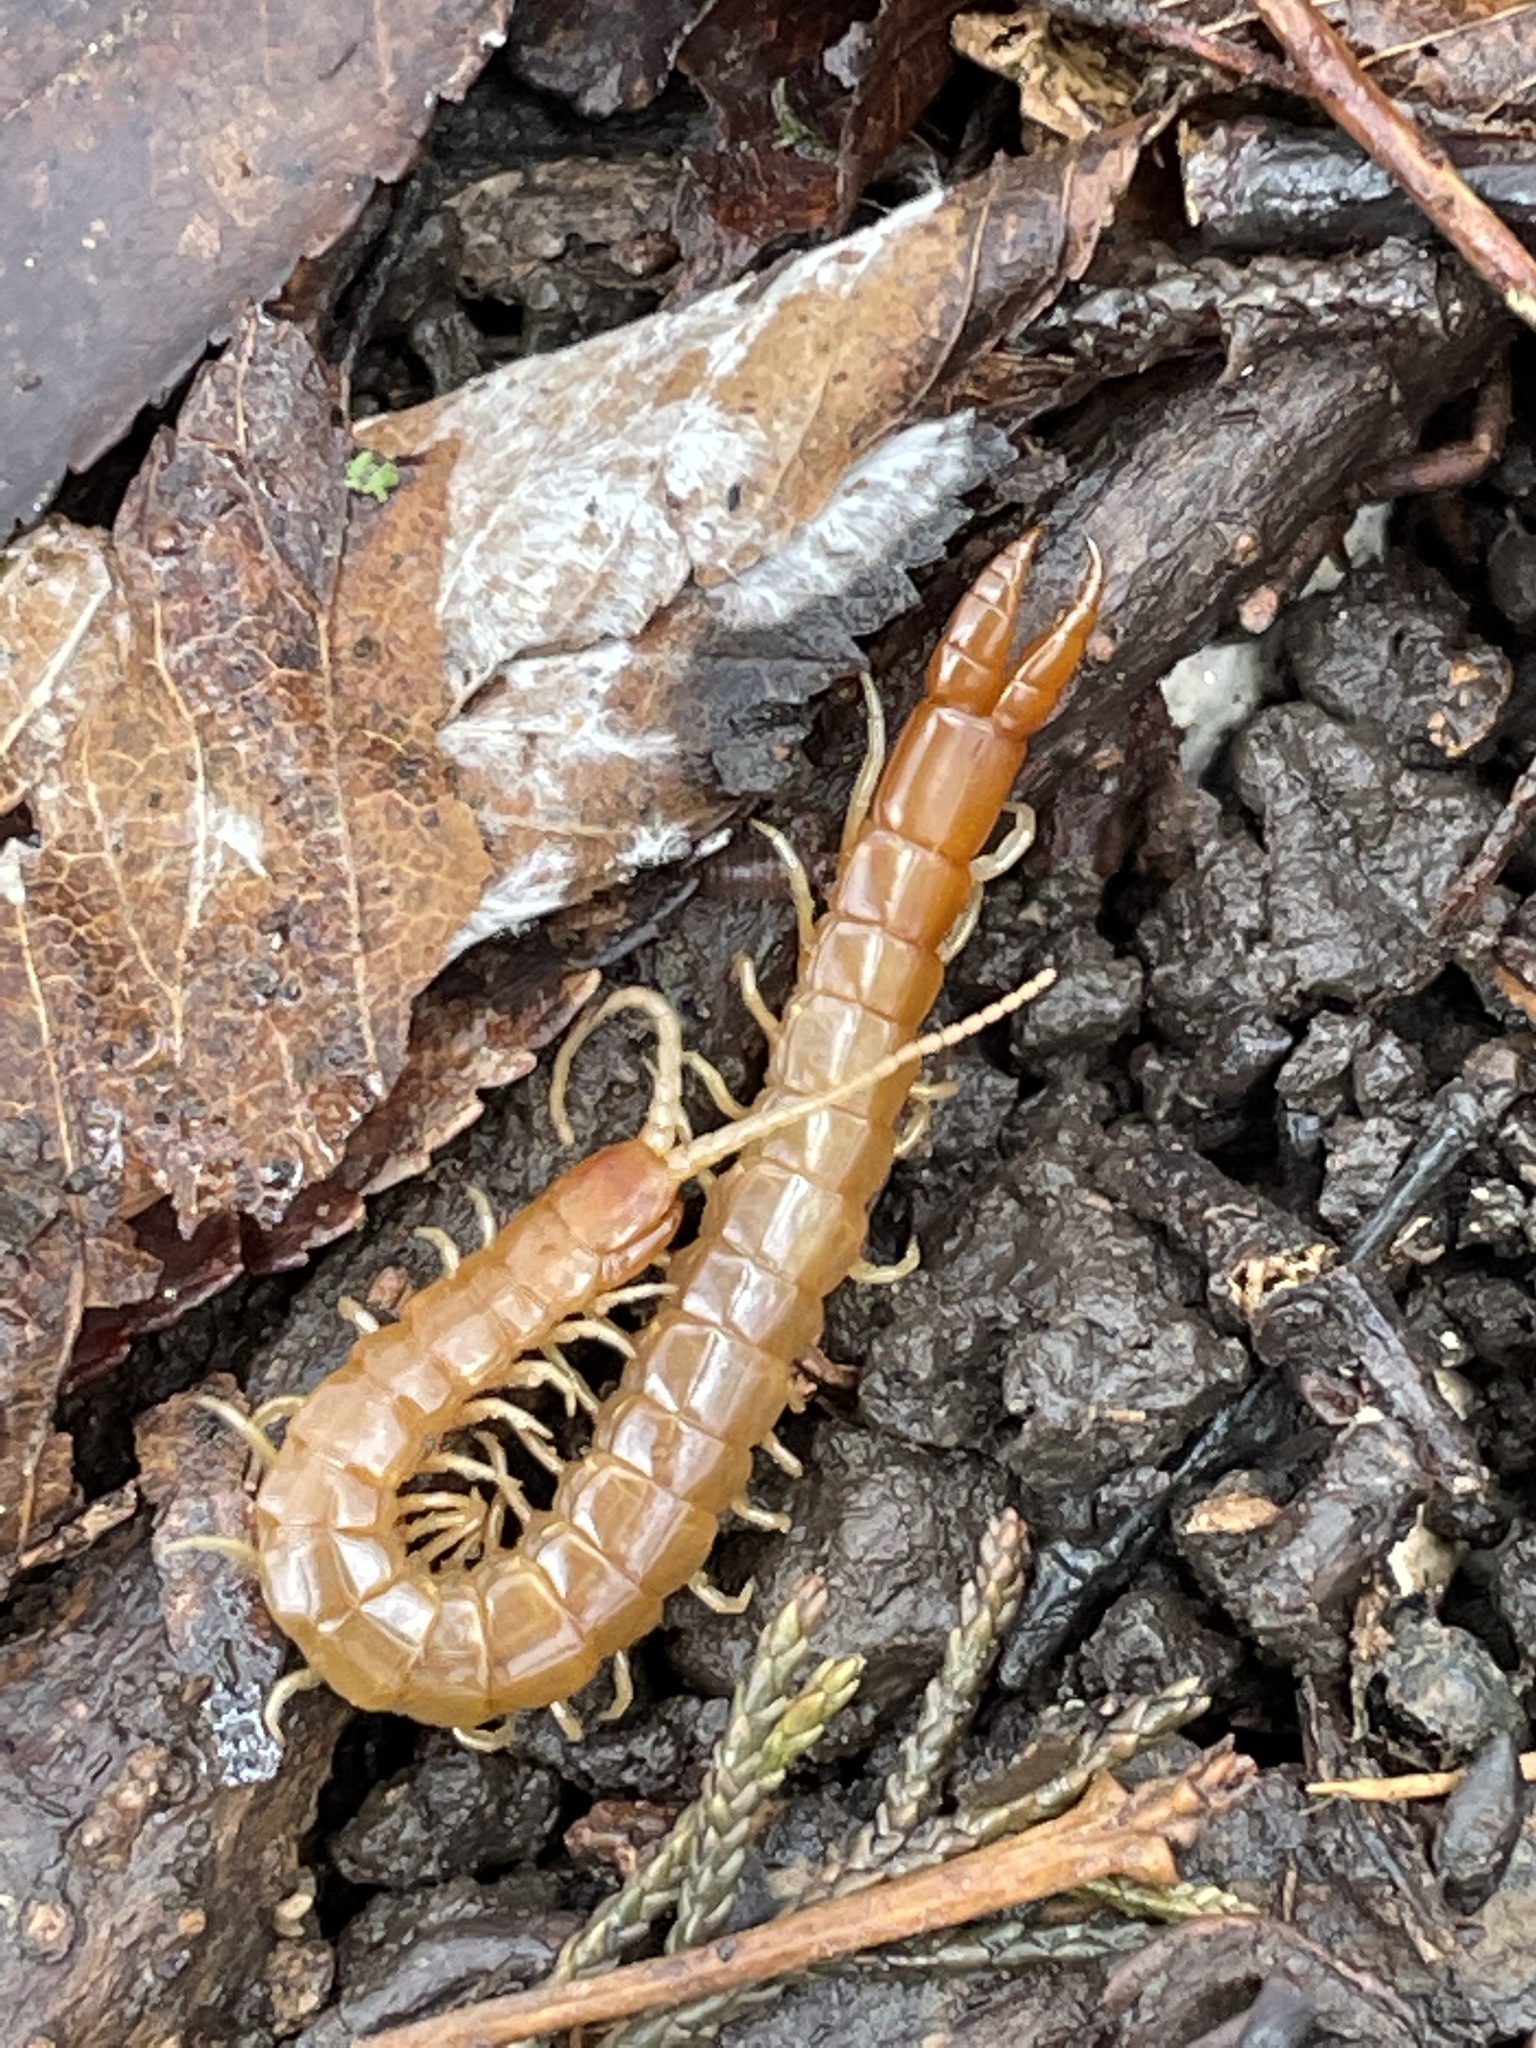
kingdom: Animalia
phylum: Arthropoda
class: Chilopoda
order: Scolopendromorpha
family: Cryptopidae
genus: Theatops
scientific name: Theatops posticus
